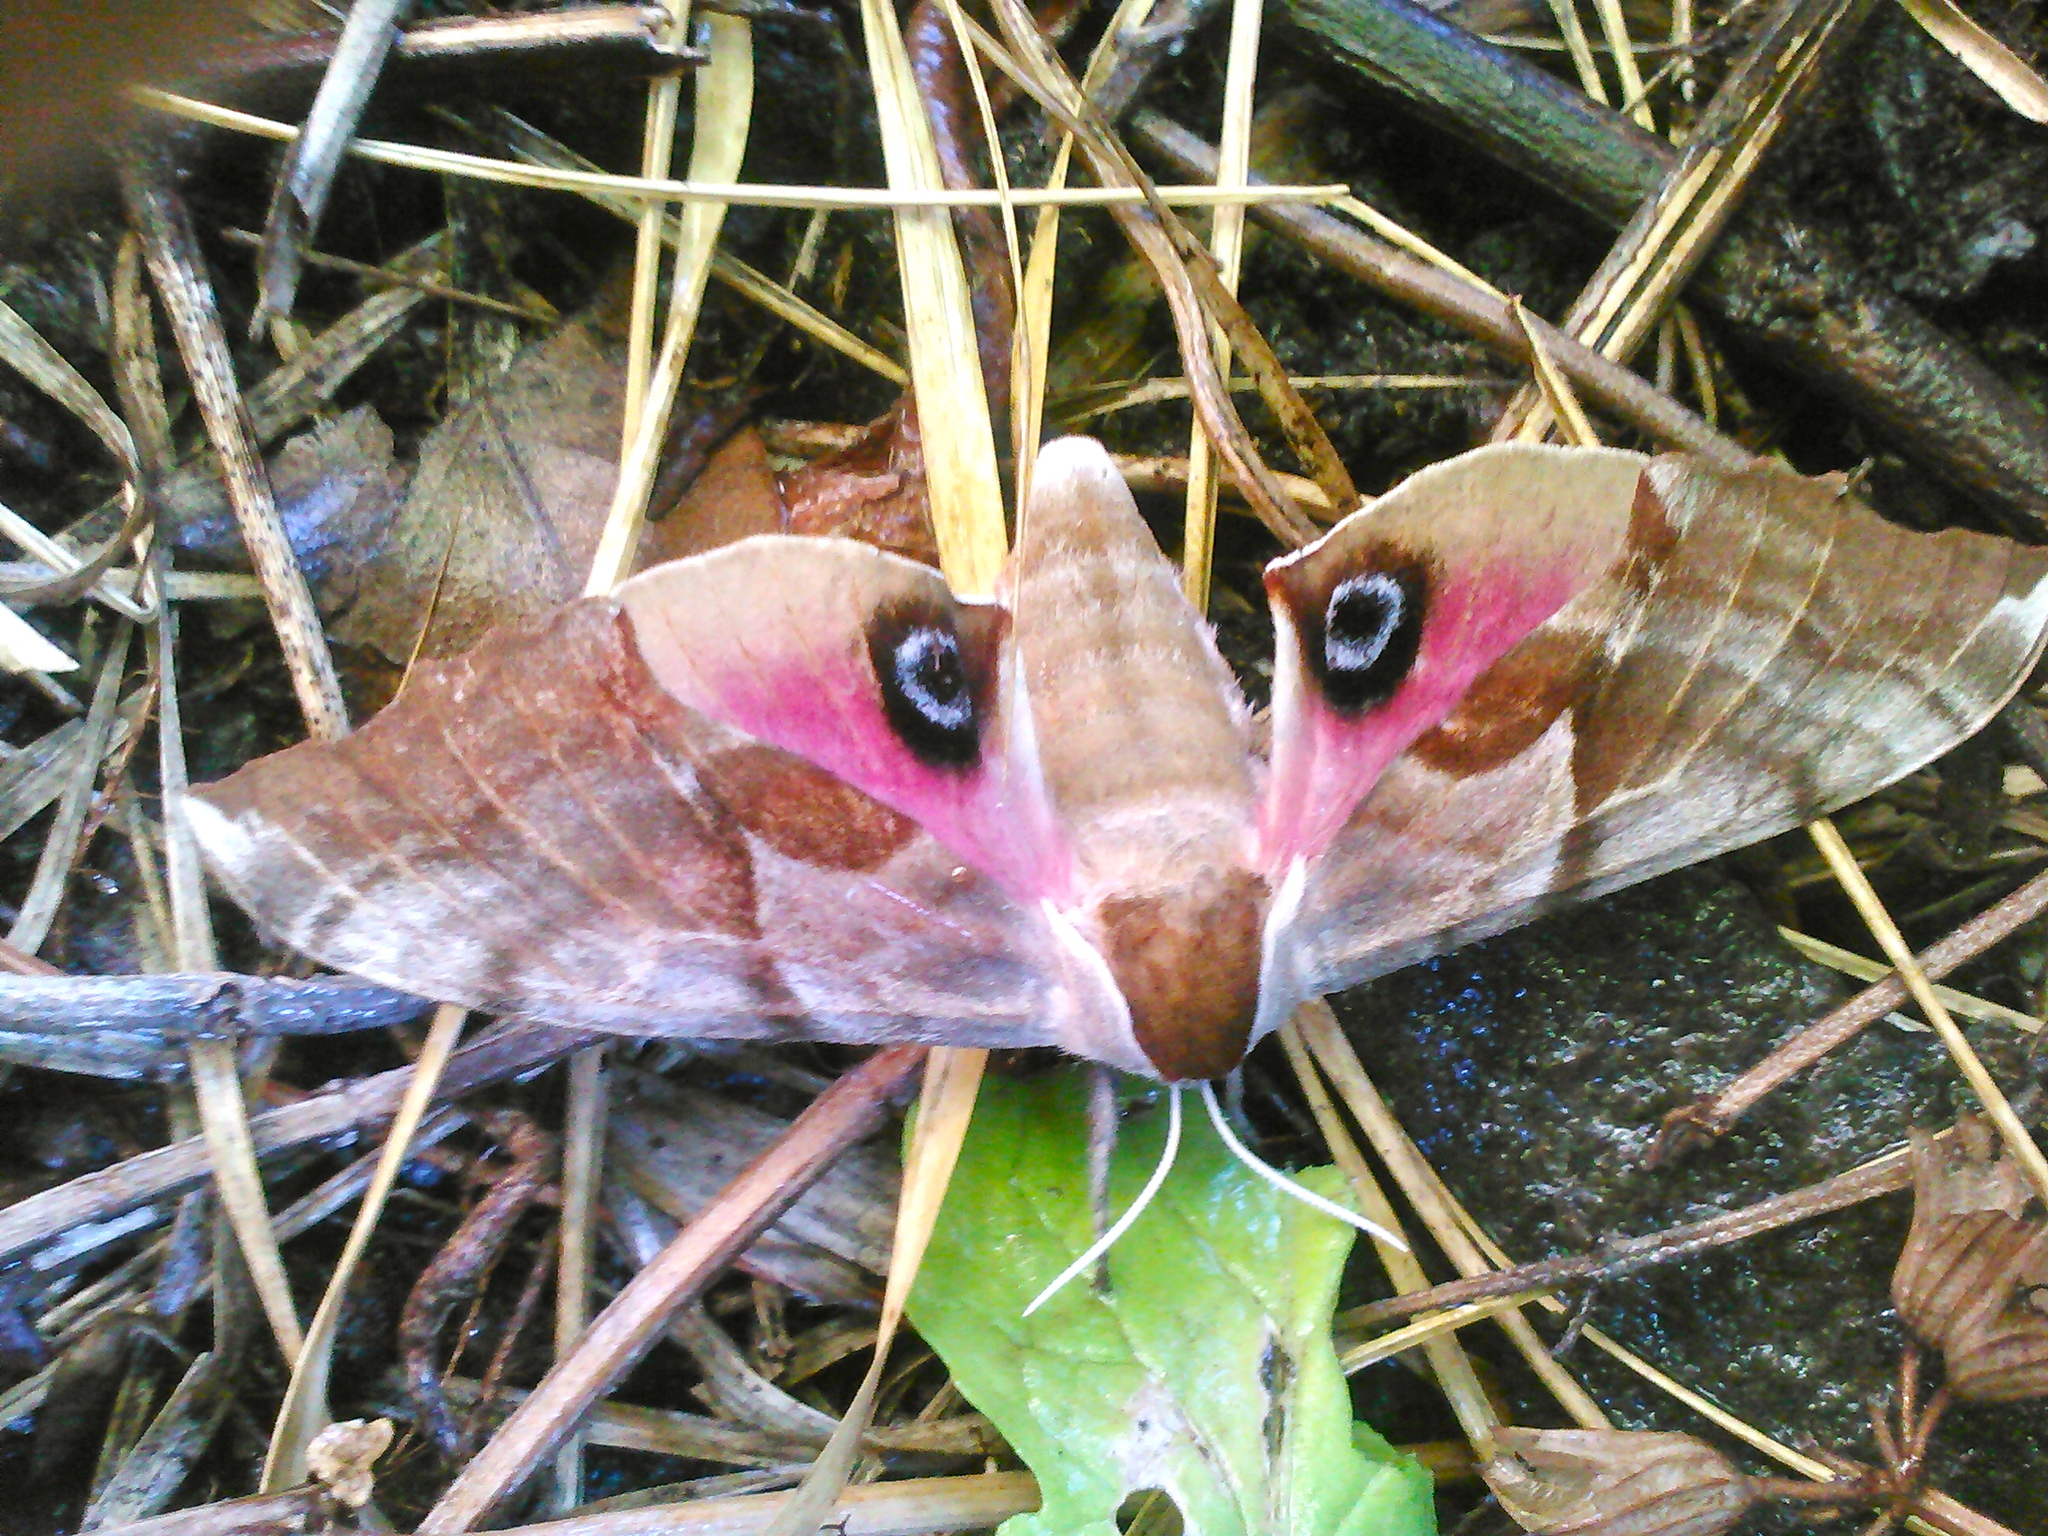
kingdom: Animalia
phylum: Arthropoda
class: Insecta
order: Lepidoptera
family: Sphingidae
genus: Smerinthus
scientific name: Smerinthus cerisyi
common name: Cerisy's sphinx moth
